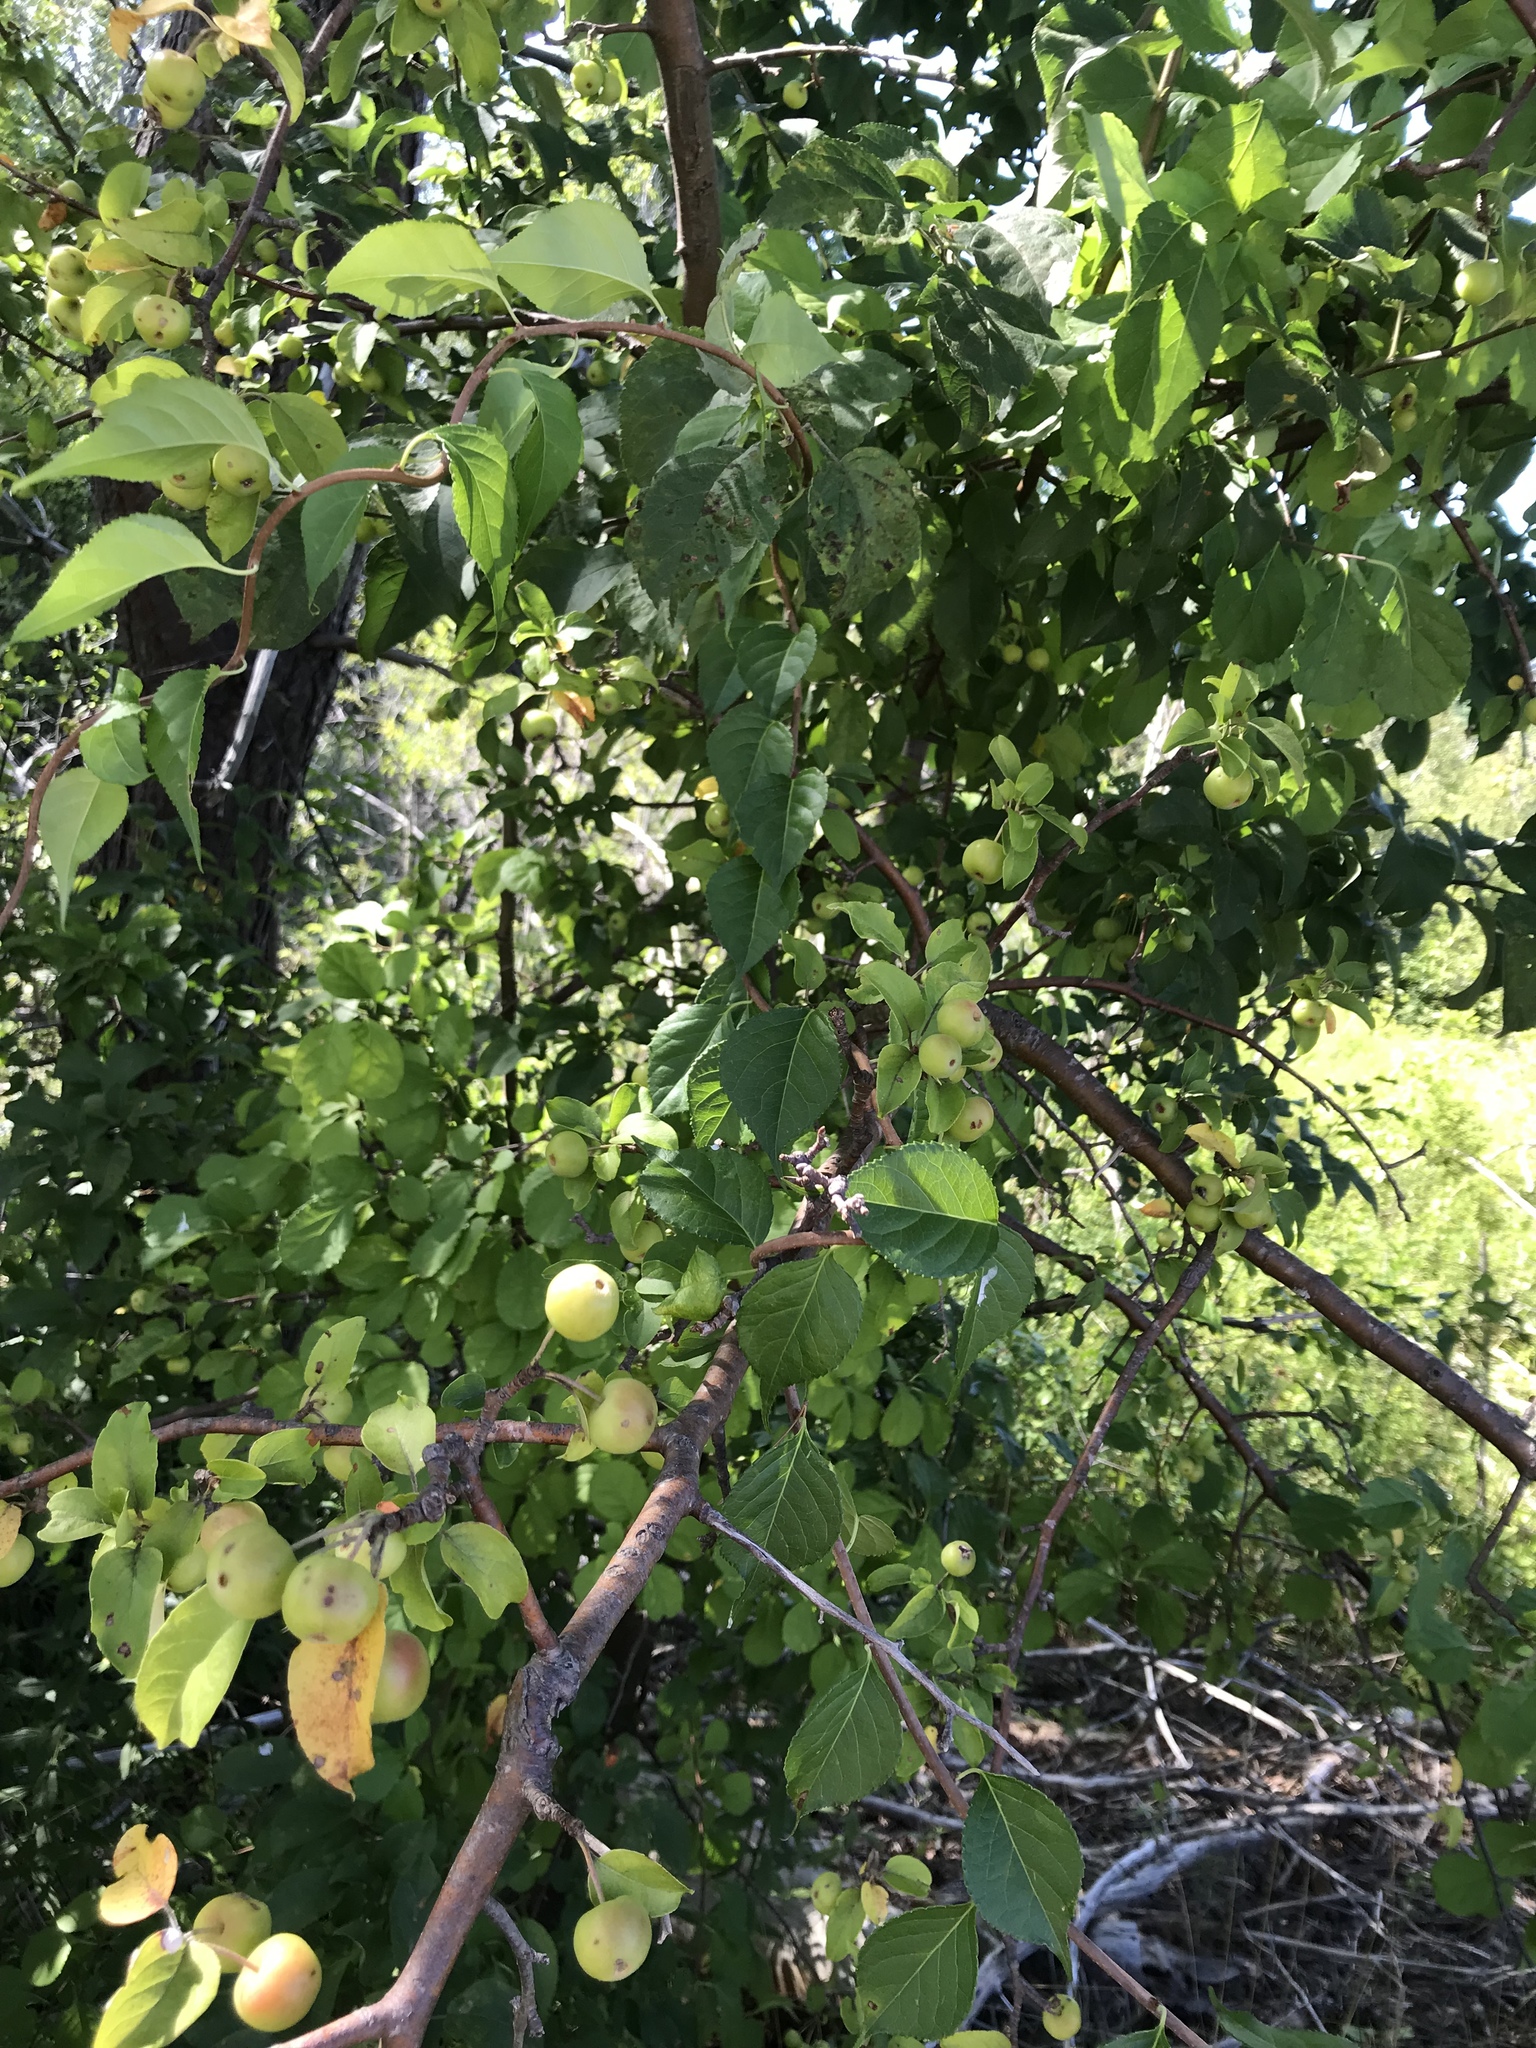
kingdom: Plantae
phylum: Tracheophyta
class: Magnoliopsida
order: Rosales
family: Rosaceae
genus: Malus
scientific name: Malus domestica
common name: Apple
